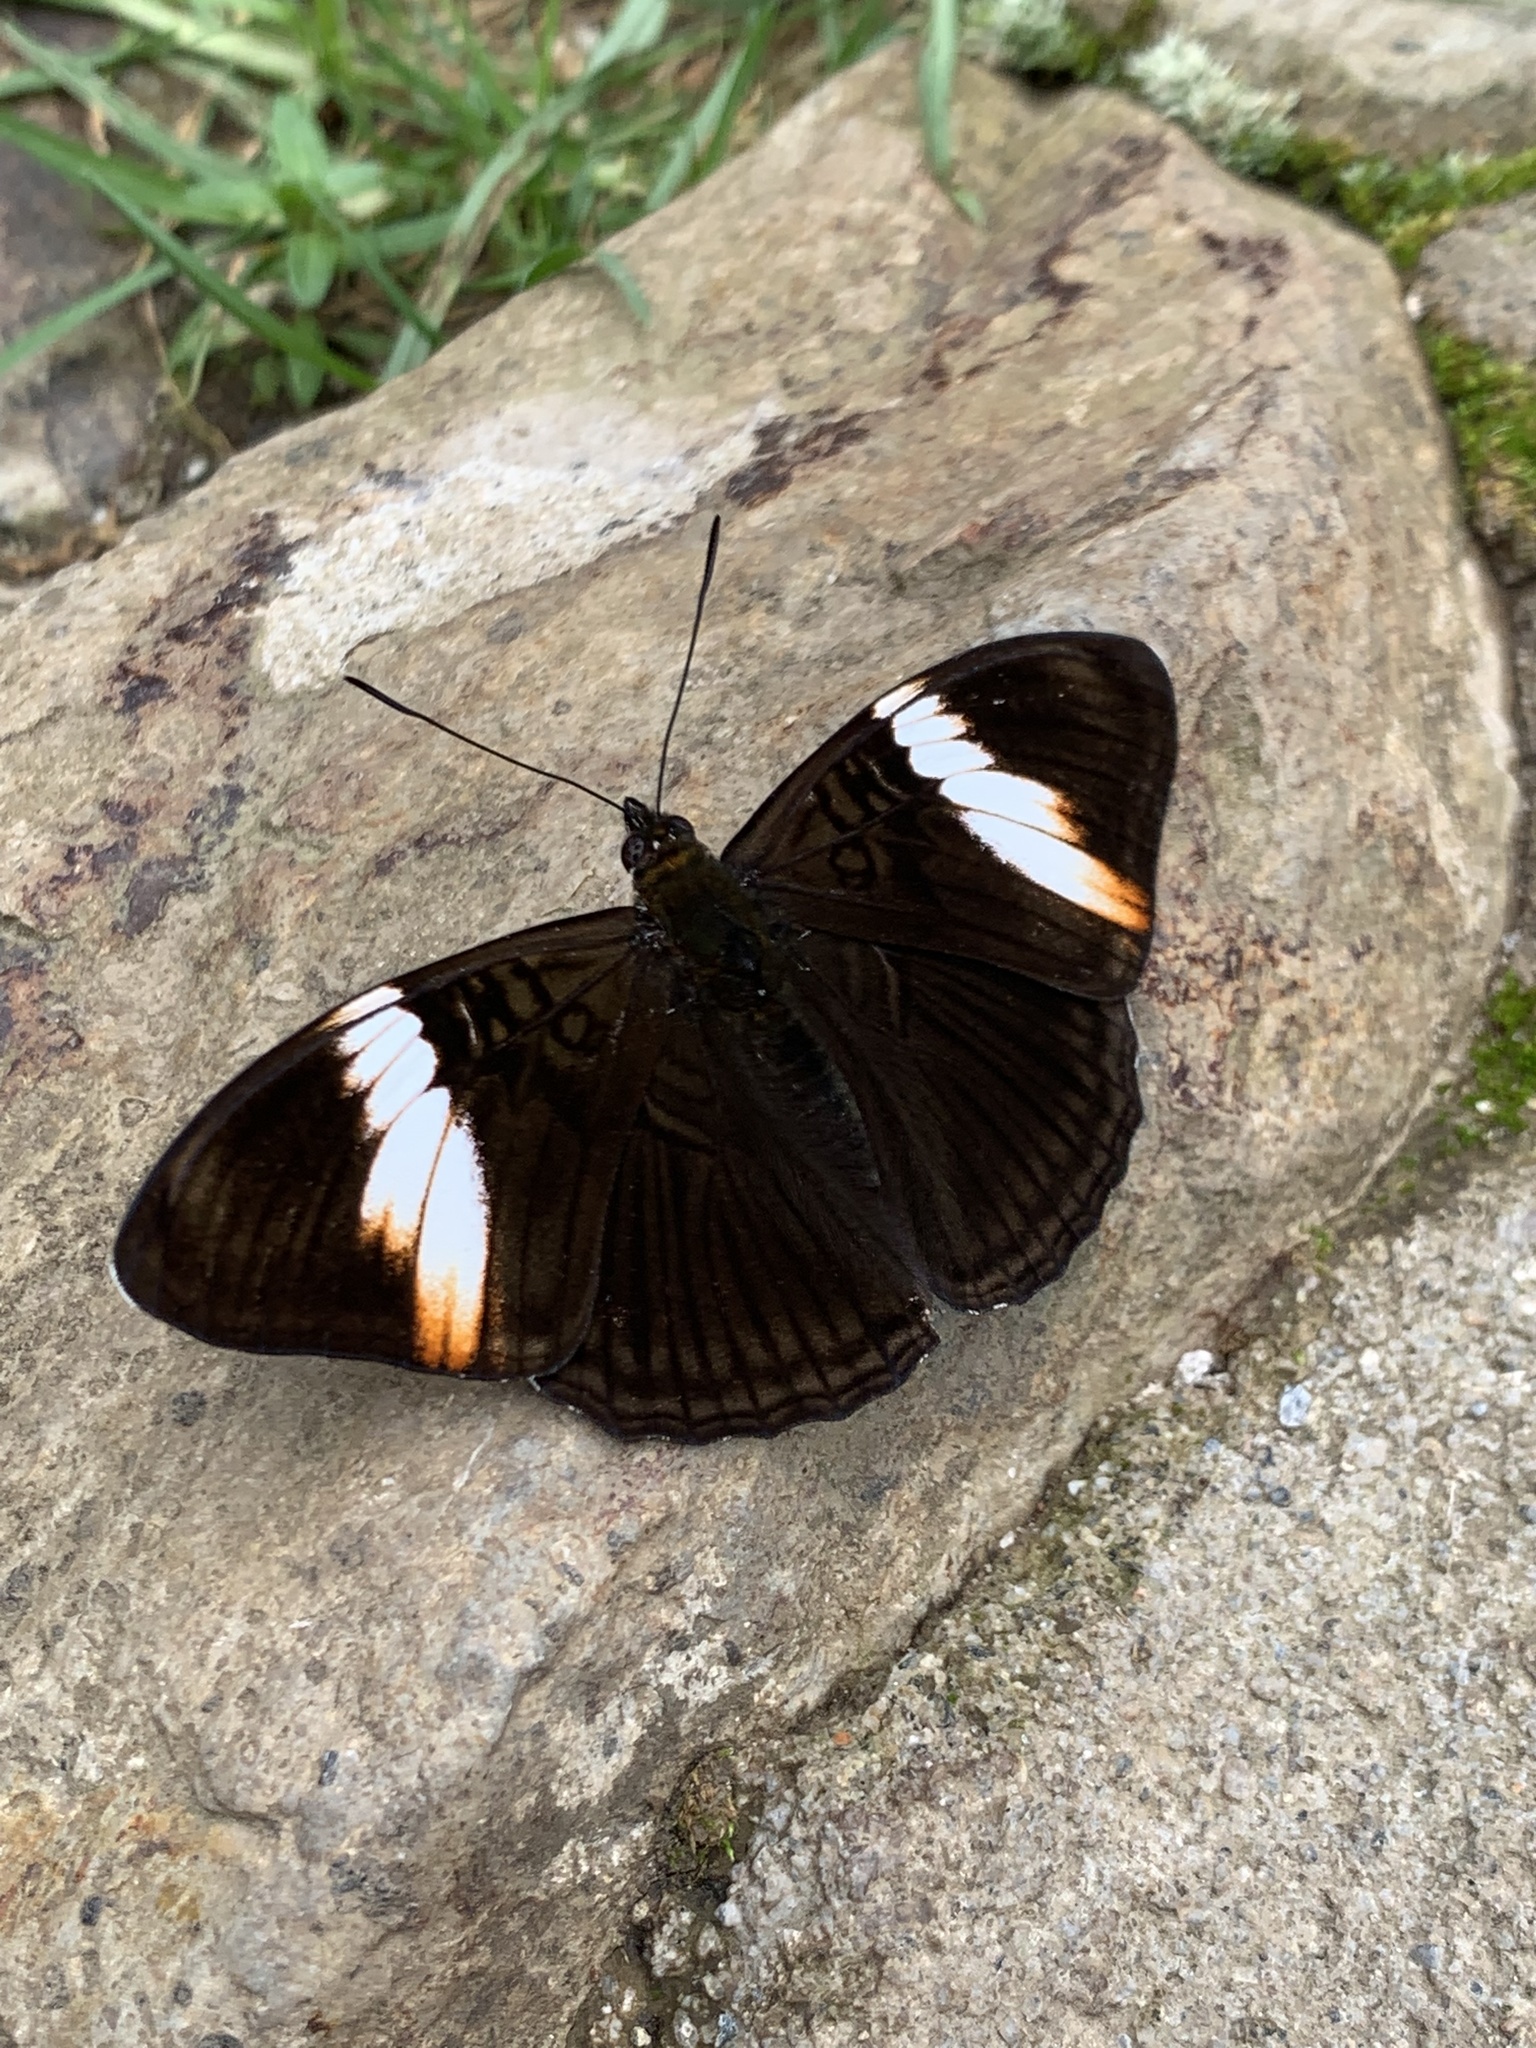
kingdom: Animalia
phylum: Arthropoda
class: Insecta
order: Lepidoptera
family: Nymphalidae
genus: Limenitis
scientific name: Limenitis isis
